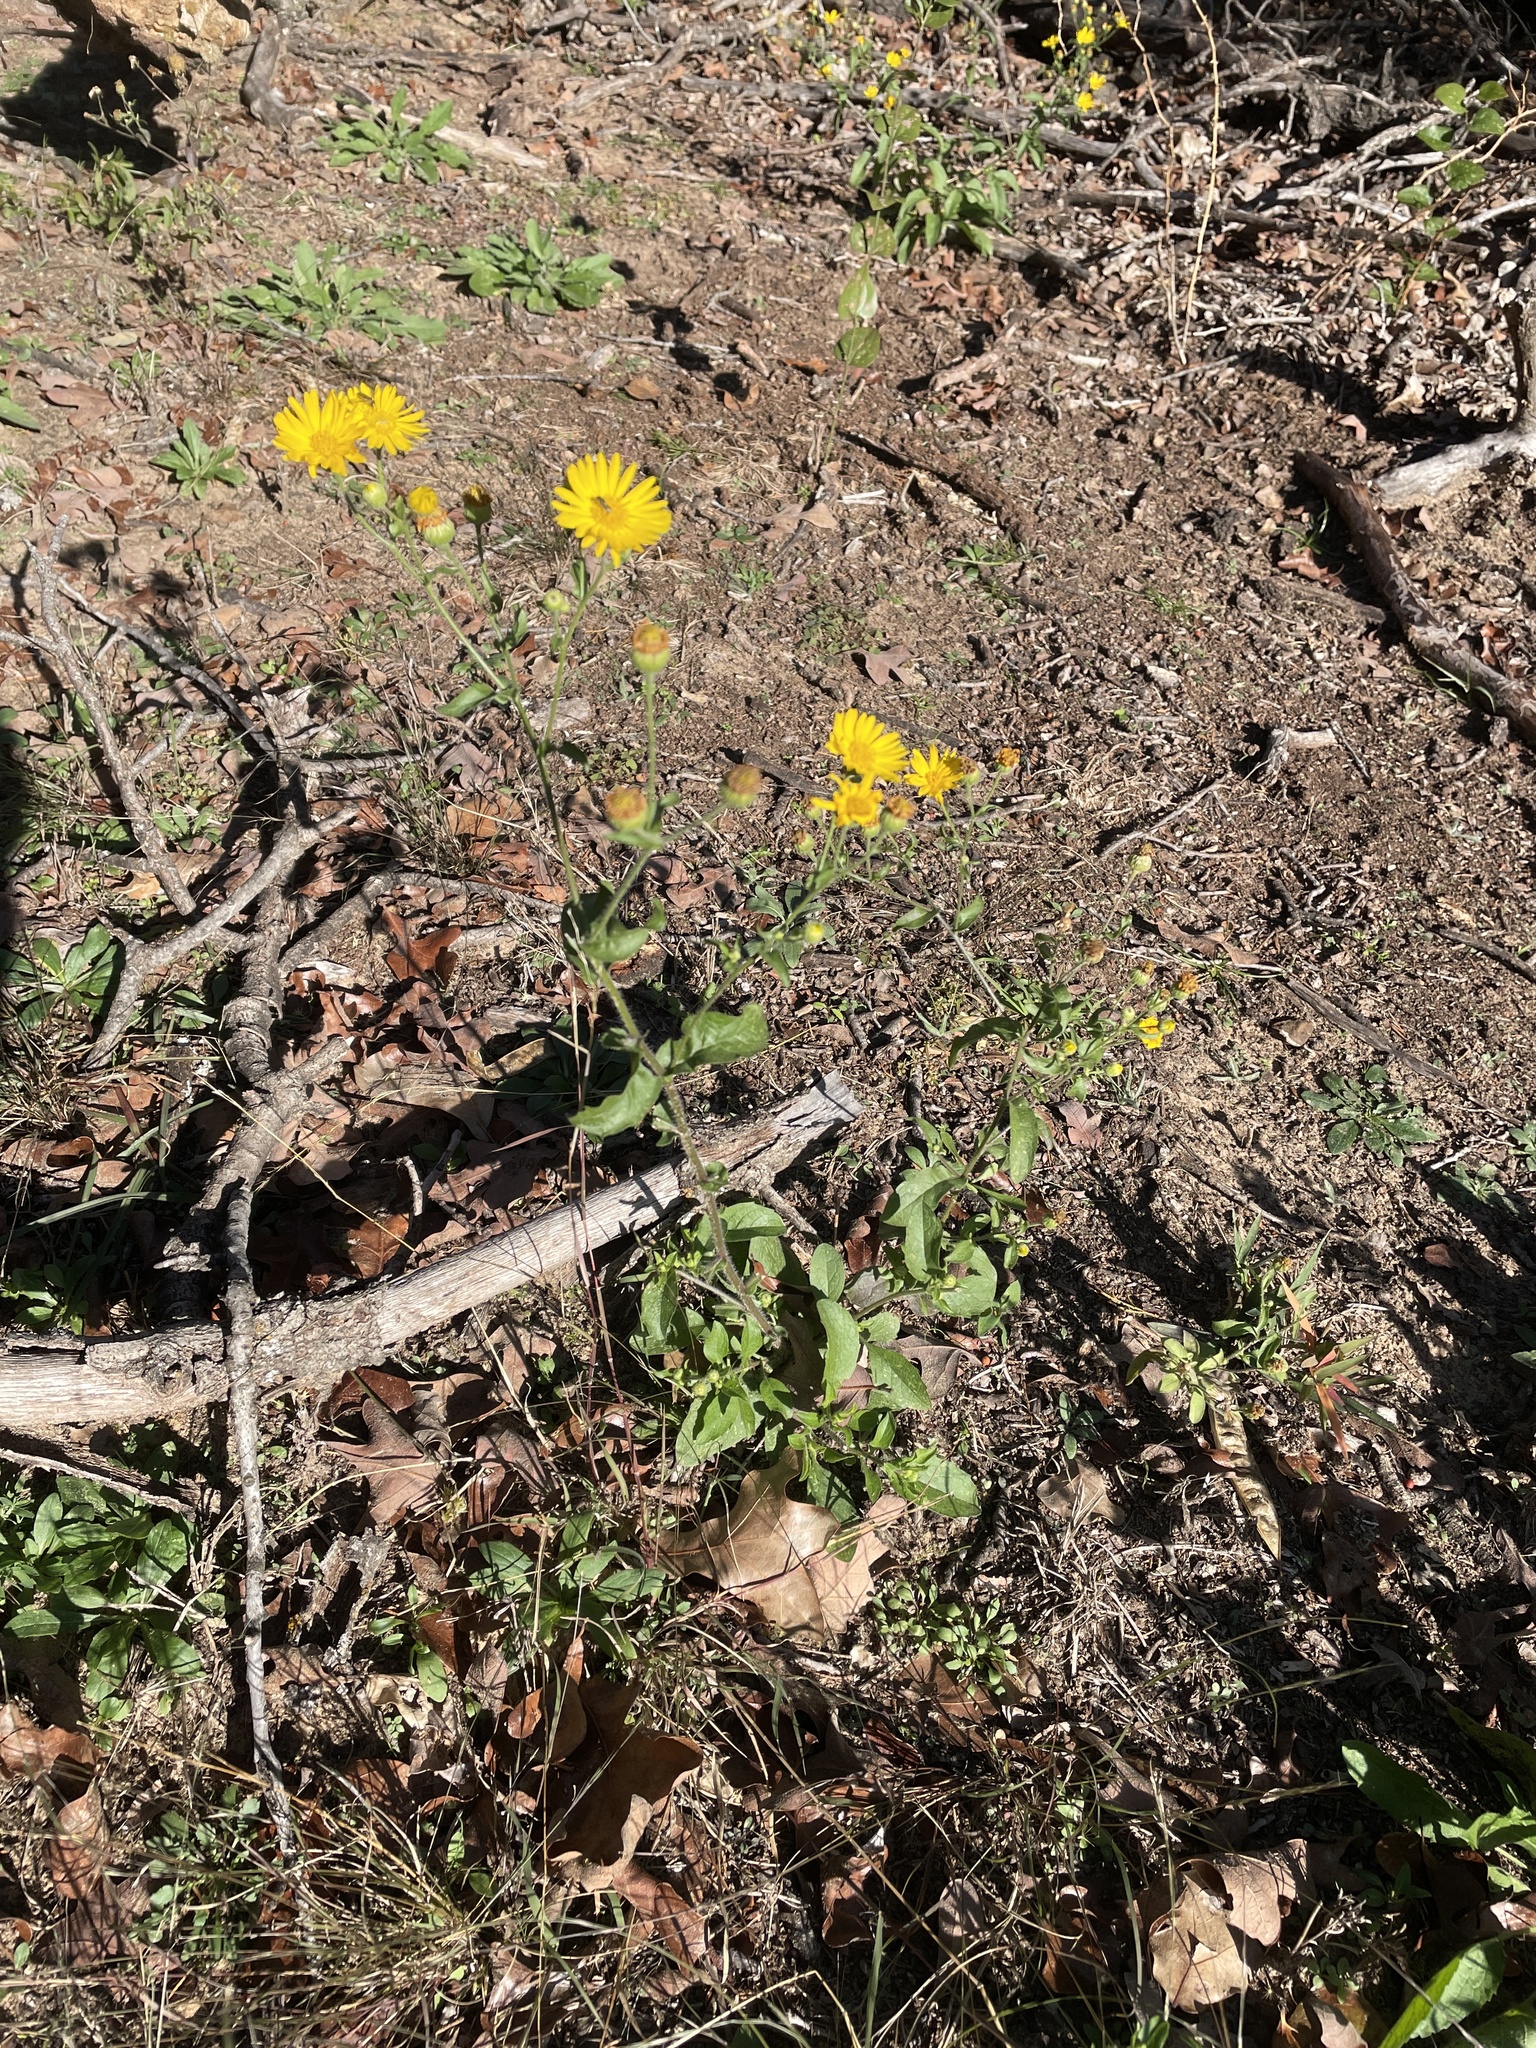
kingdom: Plantae
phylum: Tracheophyta
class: Magnoliopsida
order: Asterales
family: Asteraceae
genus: Heterotheca
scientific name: Heterotheca subaxillaris
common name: Camphorweed
